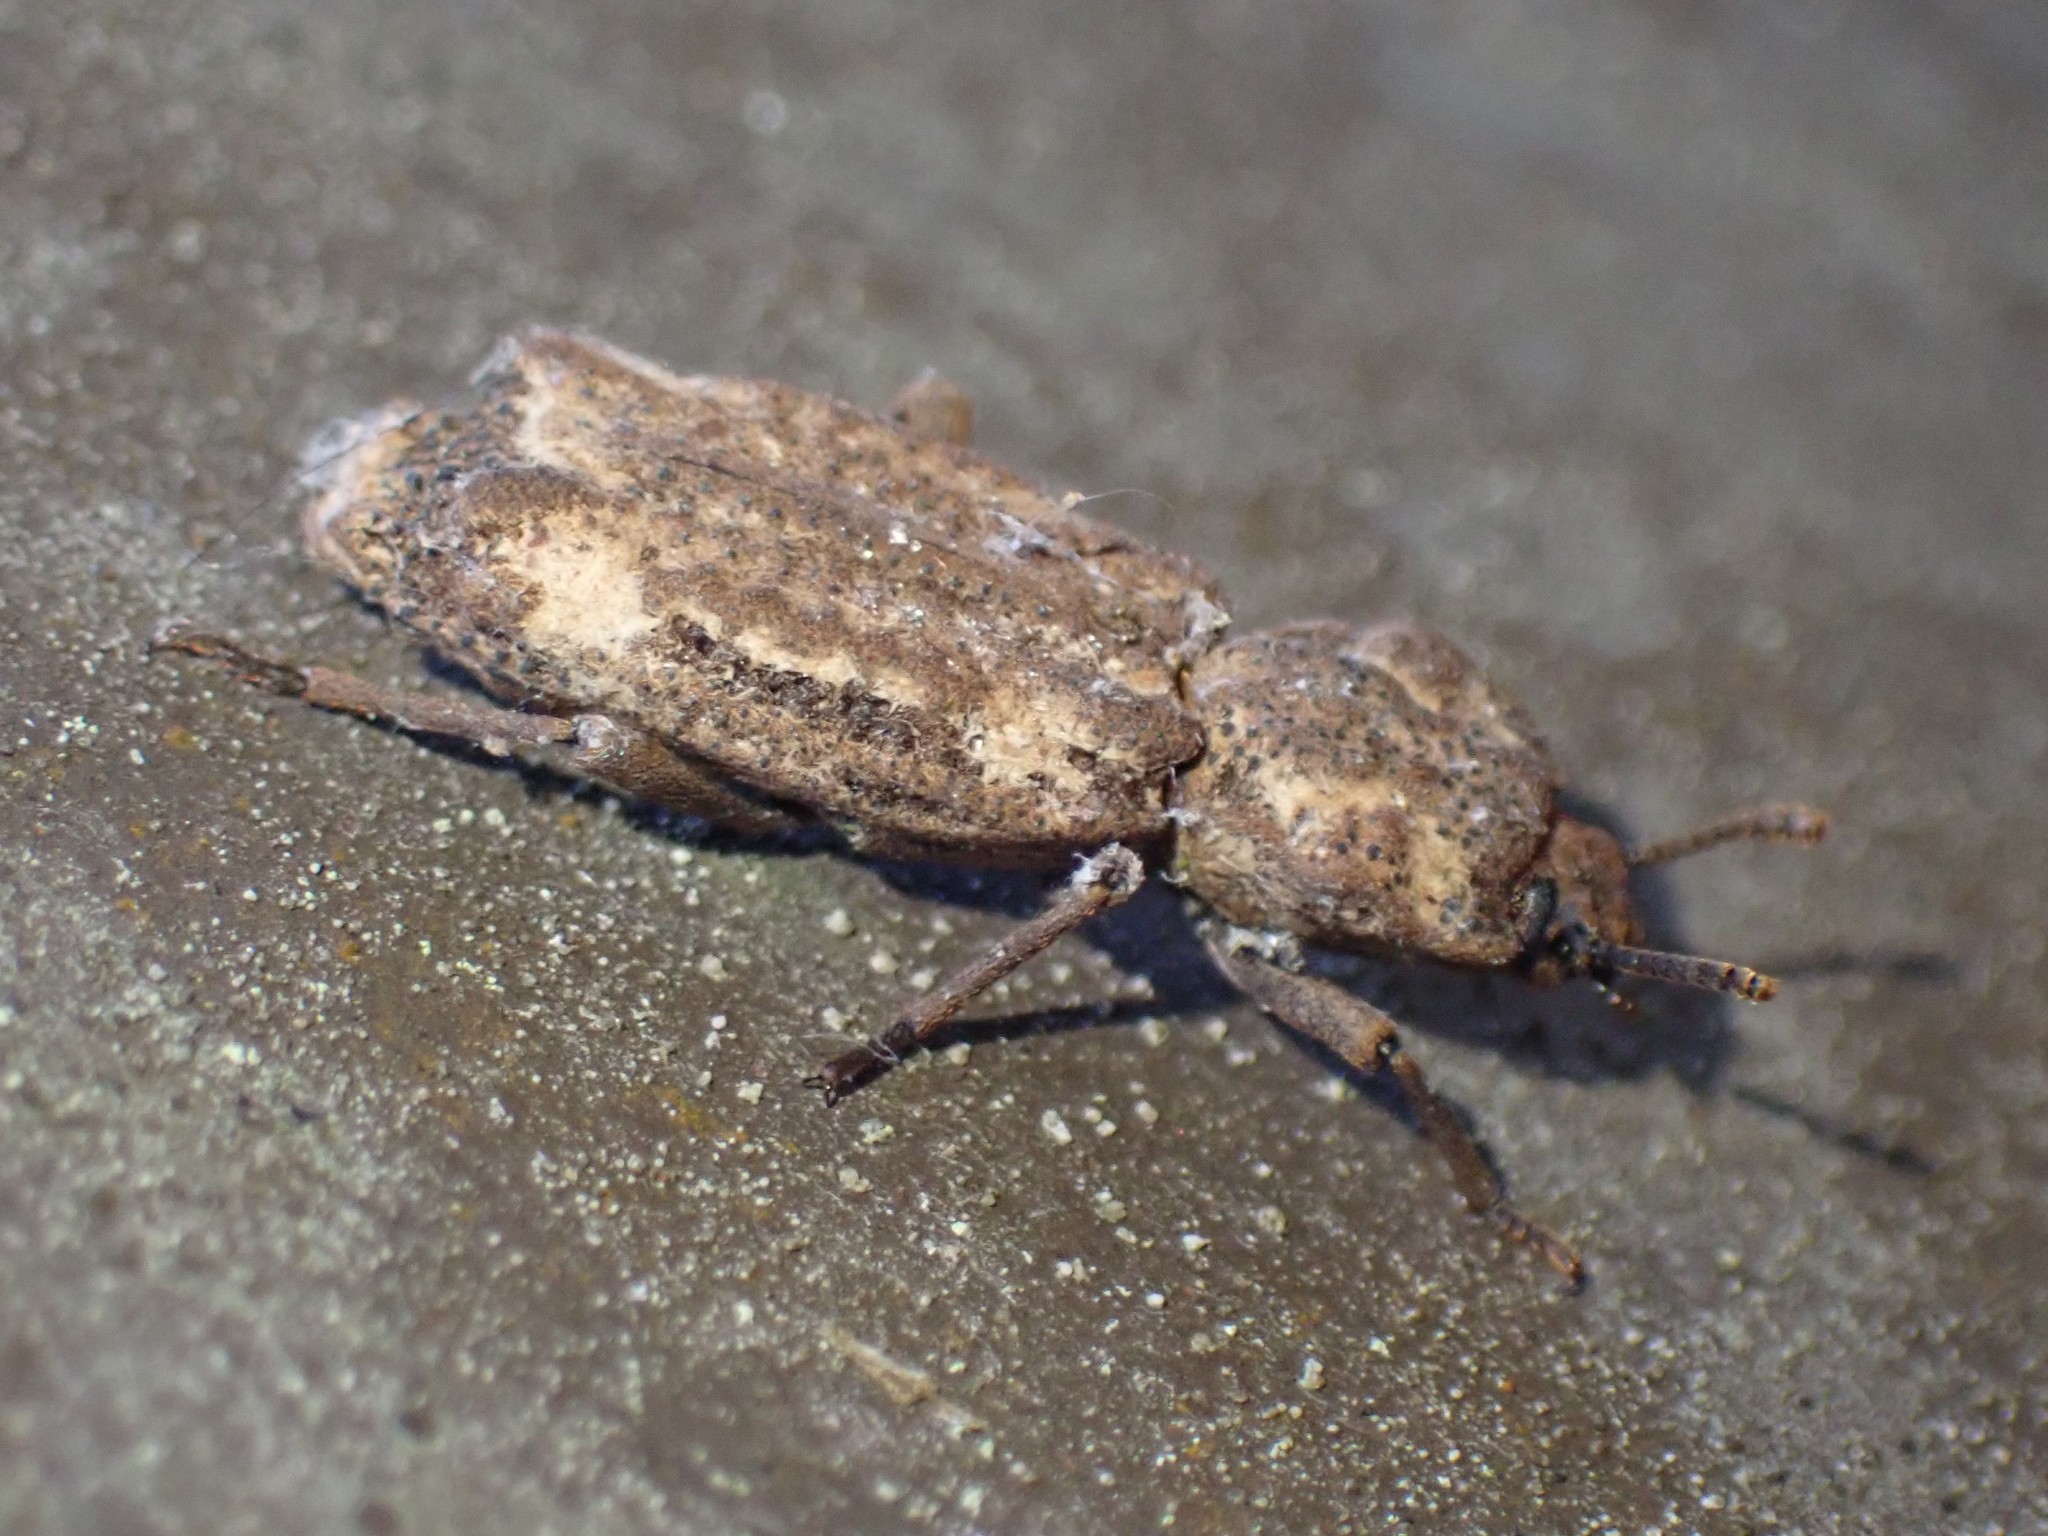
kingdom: Animalia
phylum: Arthropoda
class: Insecta
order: Coleoptera
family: Zopheridae
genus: Phellopsis
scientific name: Phellopsis porcata
